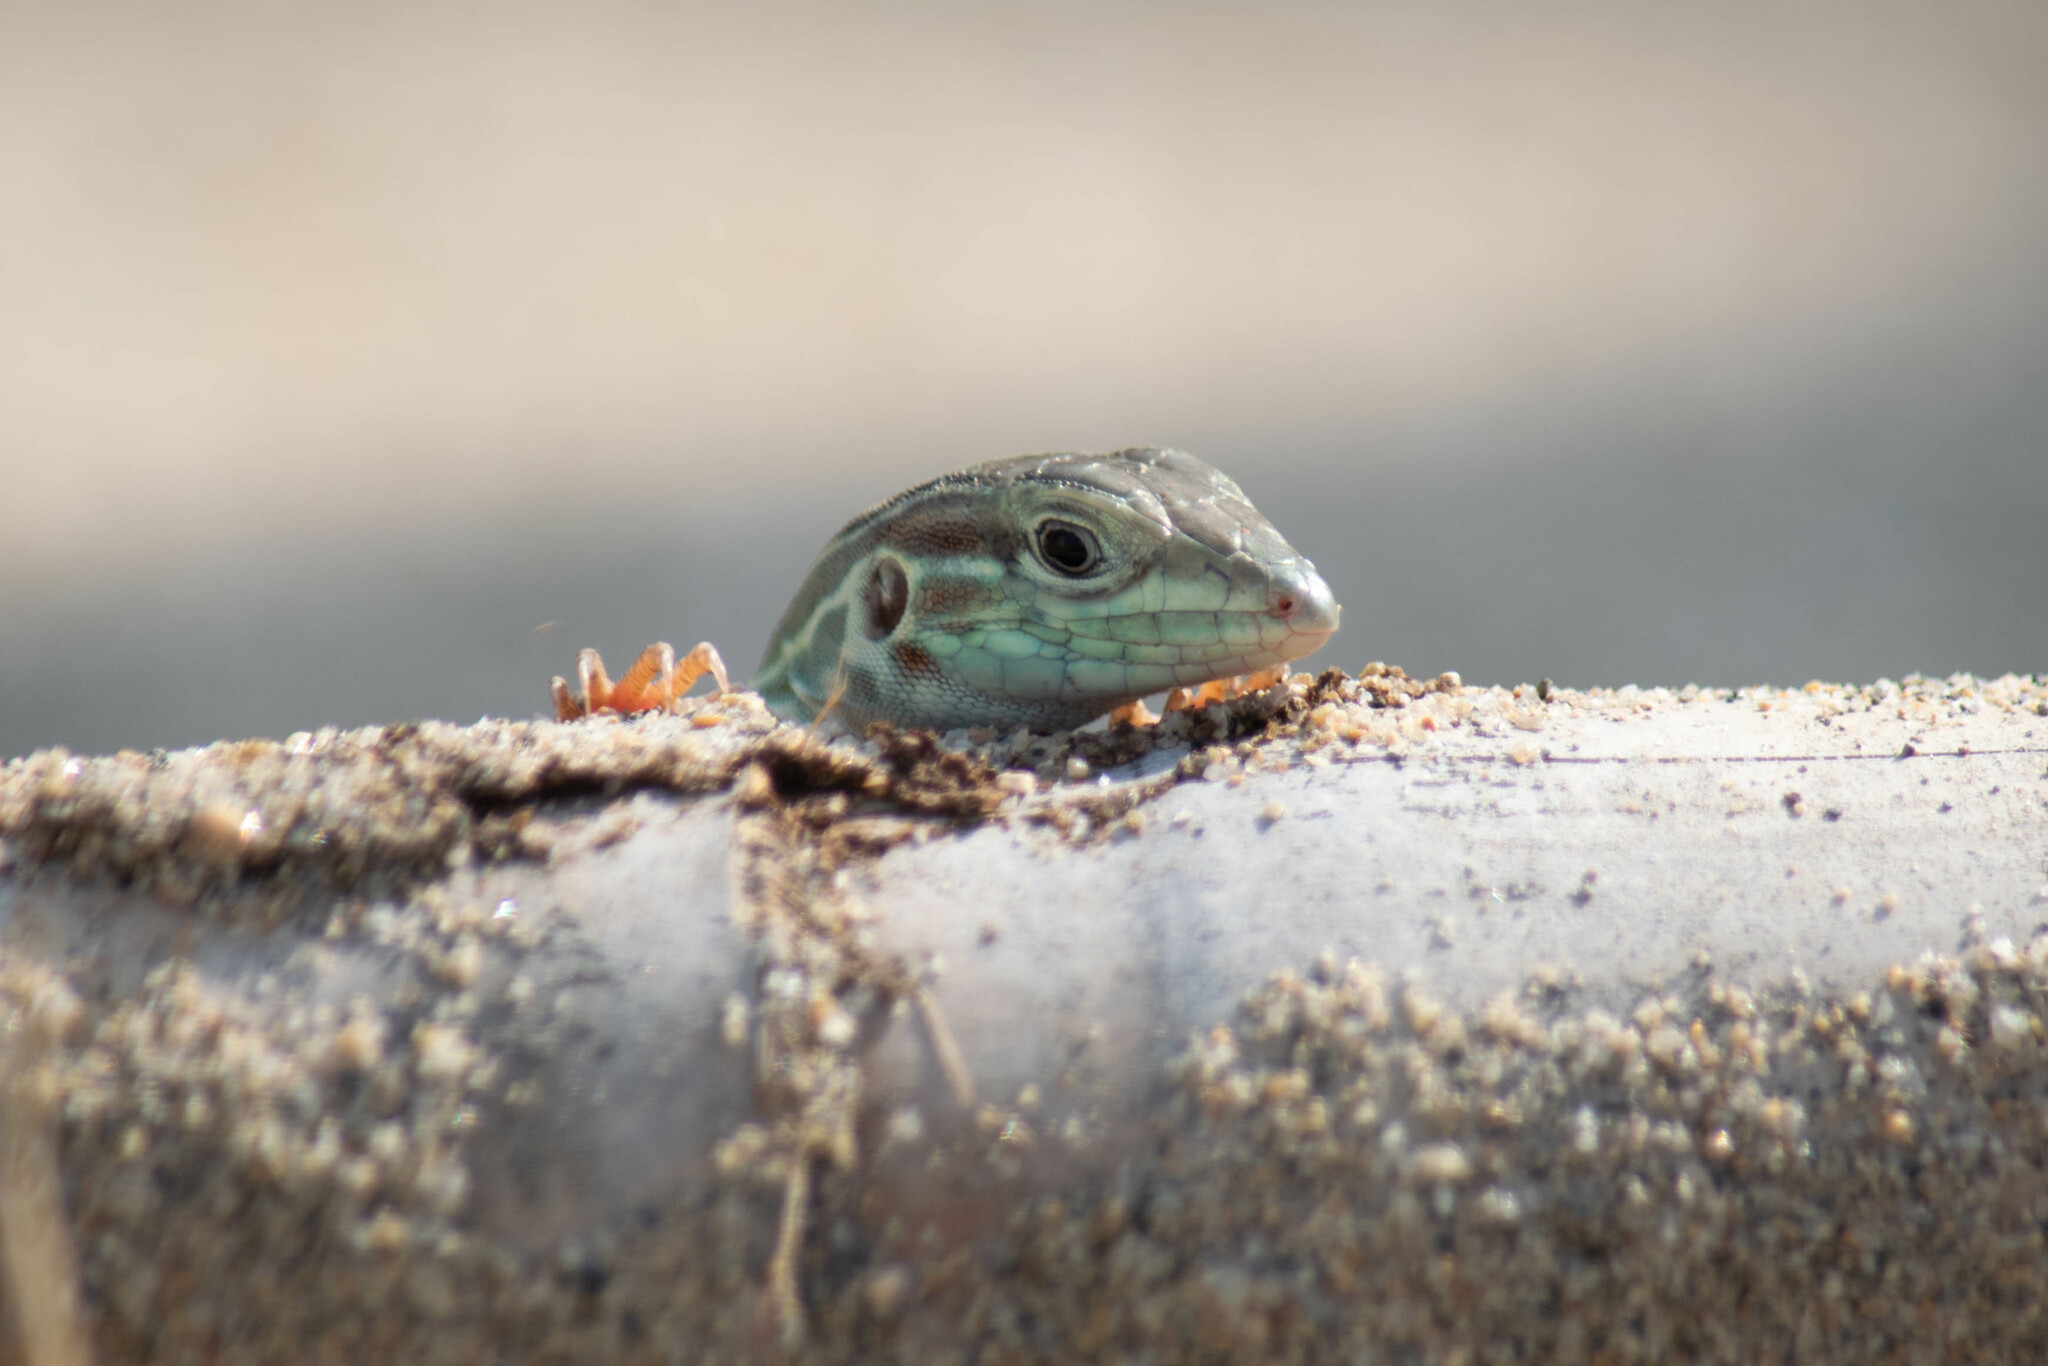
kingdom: Animalia
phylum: Chordata
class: Squamata
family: Teiidae
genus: Aspidoscelis
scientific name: Aspidoscelis deppii
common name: Blackbelly racerunner
